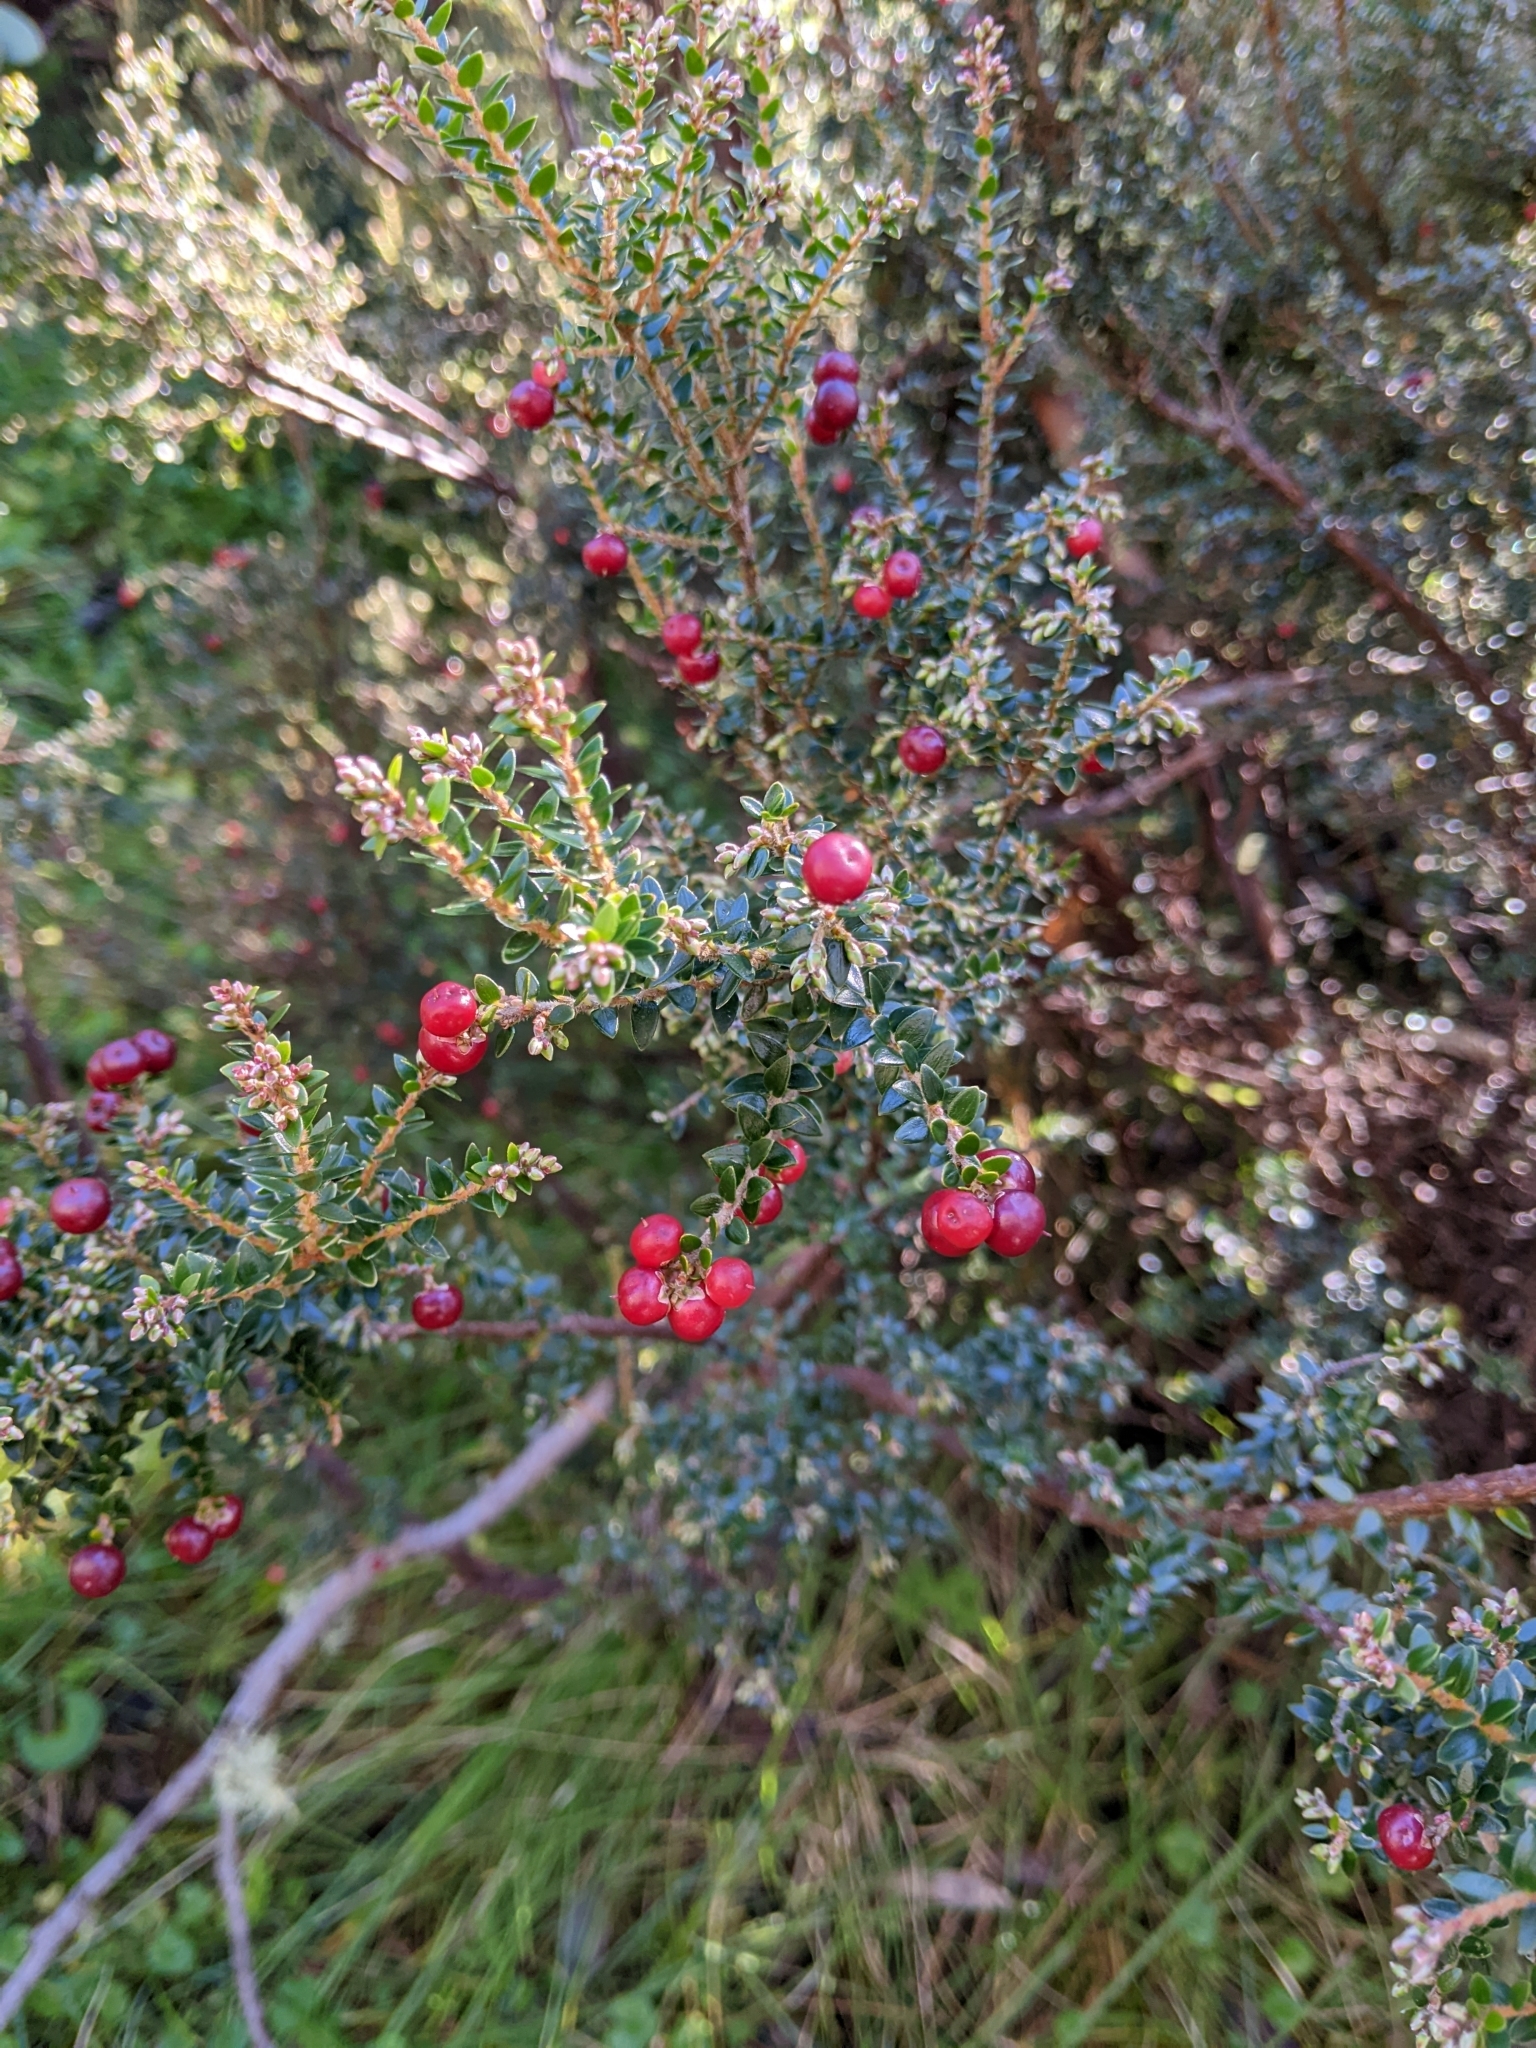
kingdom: Plantae
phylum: Tracheophyta
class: Magnoliopsida
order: Ericales
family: Ericaceae
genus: Acrothamnus
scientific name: Acrothamnus maccraei
